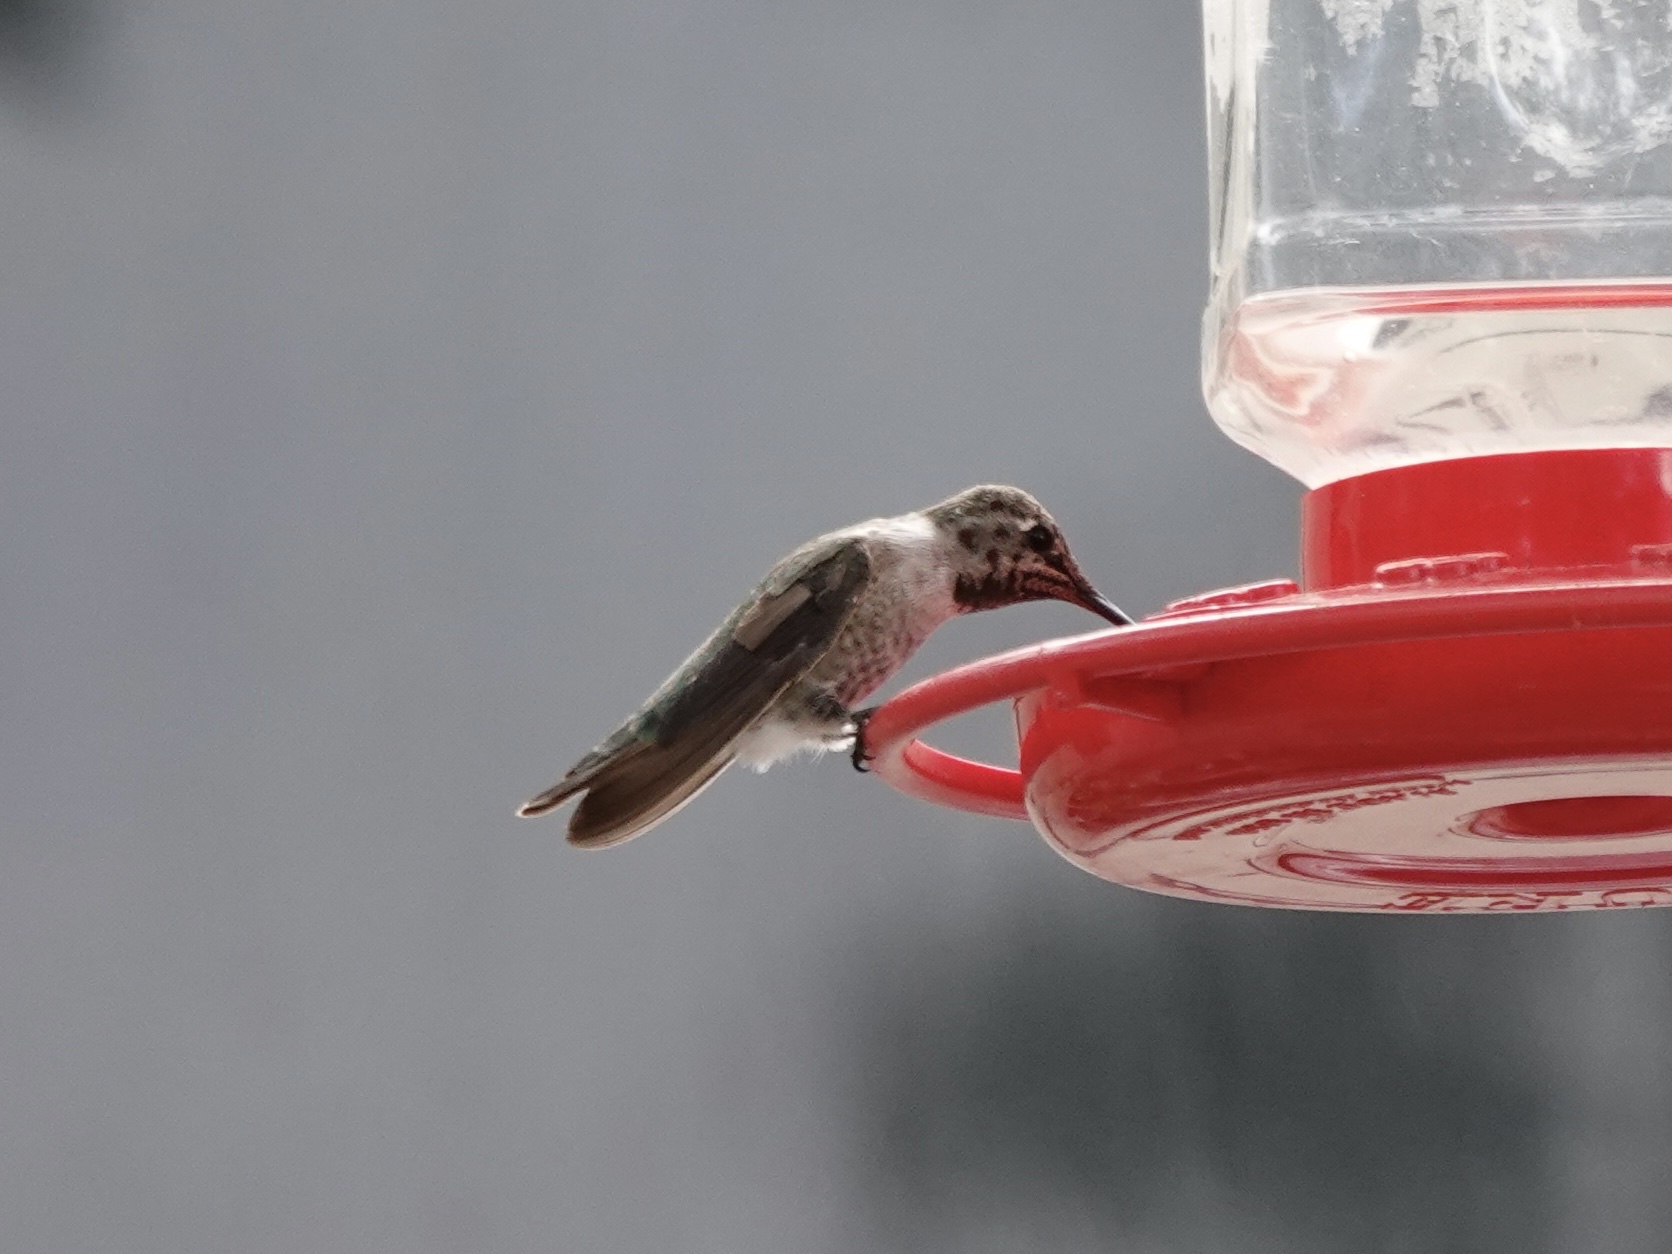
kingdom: Animalia
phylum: Chordata
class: Aves
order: Apodiformes
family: Trochilidae
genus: Calypte
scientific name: Calypte anna
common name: Anna's hummingbird
